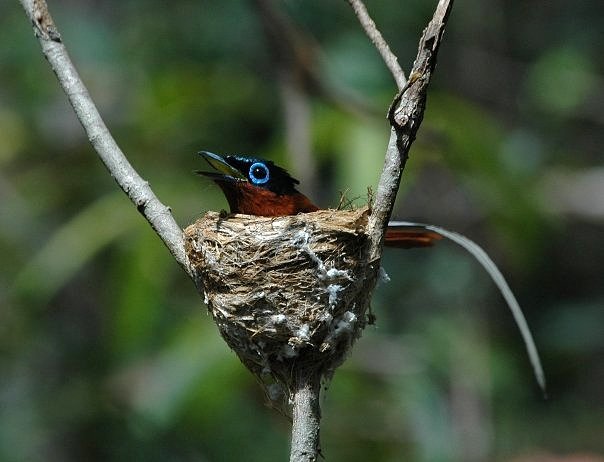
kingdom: Animalia
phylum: Chordata
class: Aves
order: Passeriformes
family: Monarchidae
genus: Terpsiphone
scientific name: Terpsiphone mutata
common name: Malagasy paradise flycatcher
